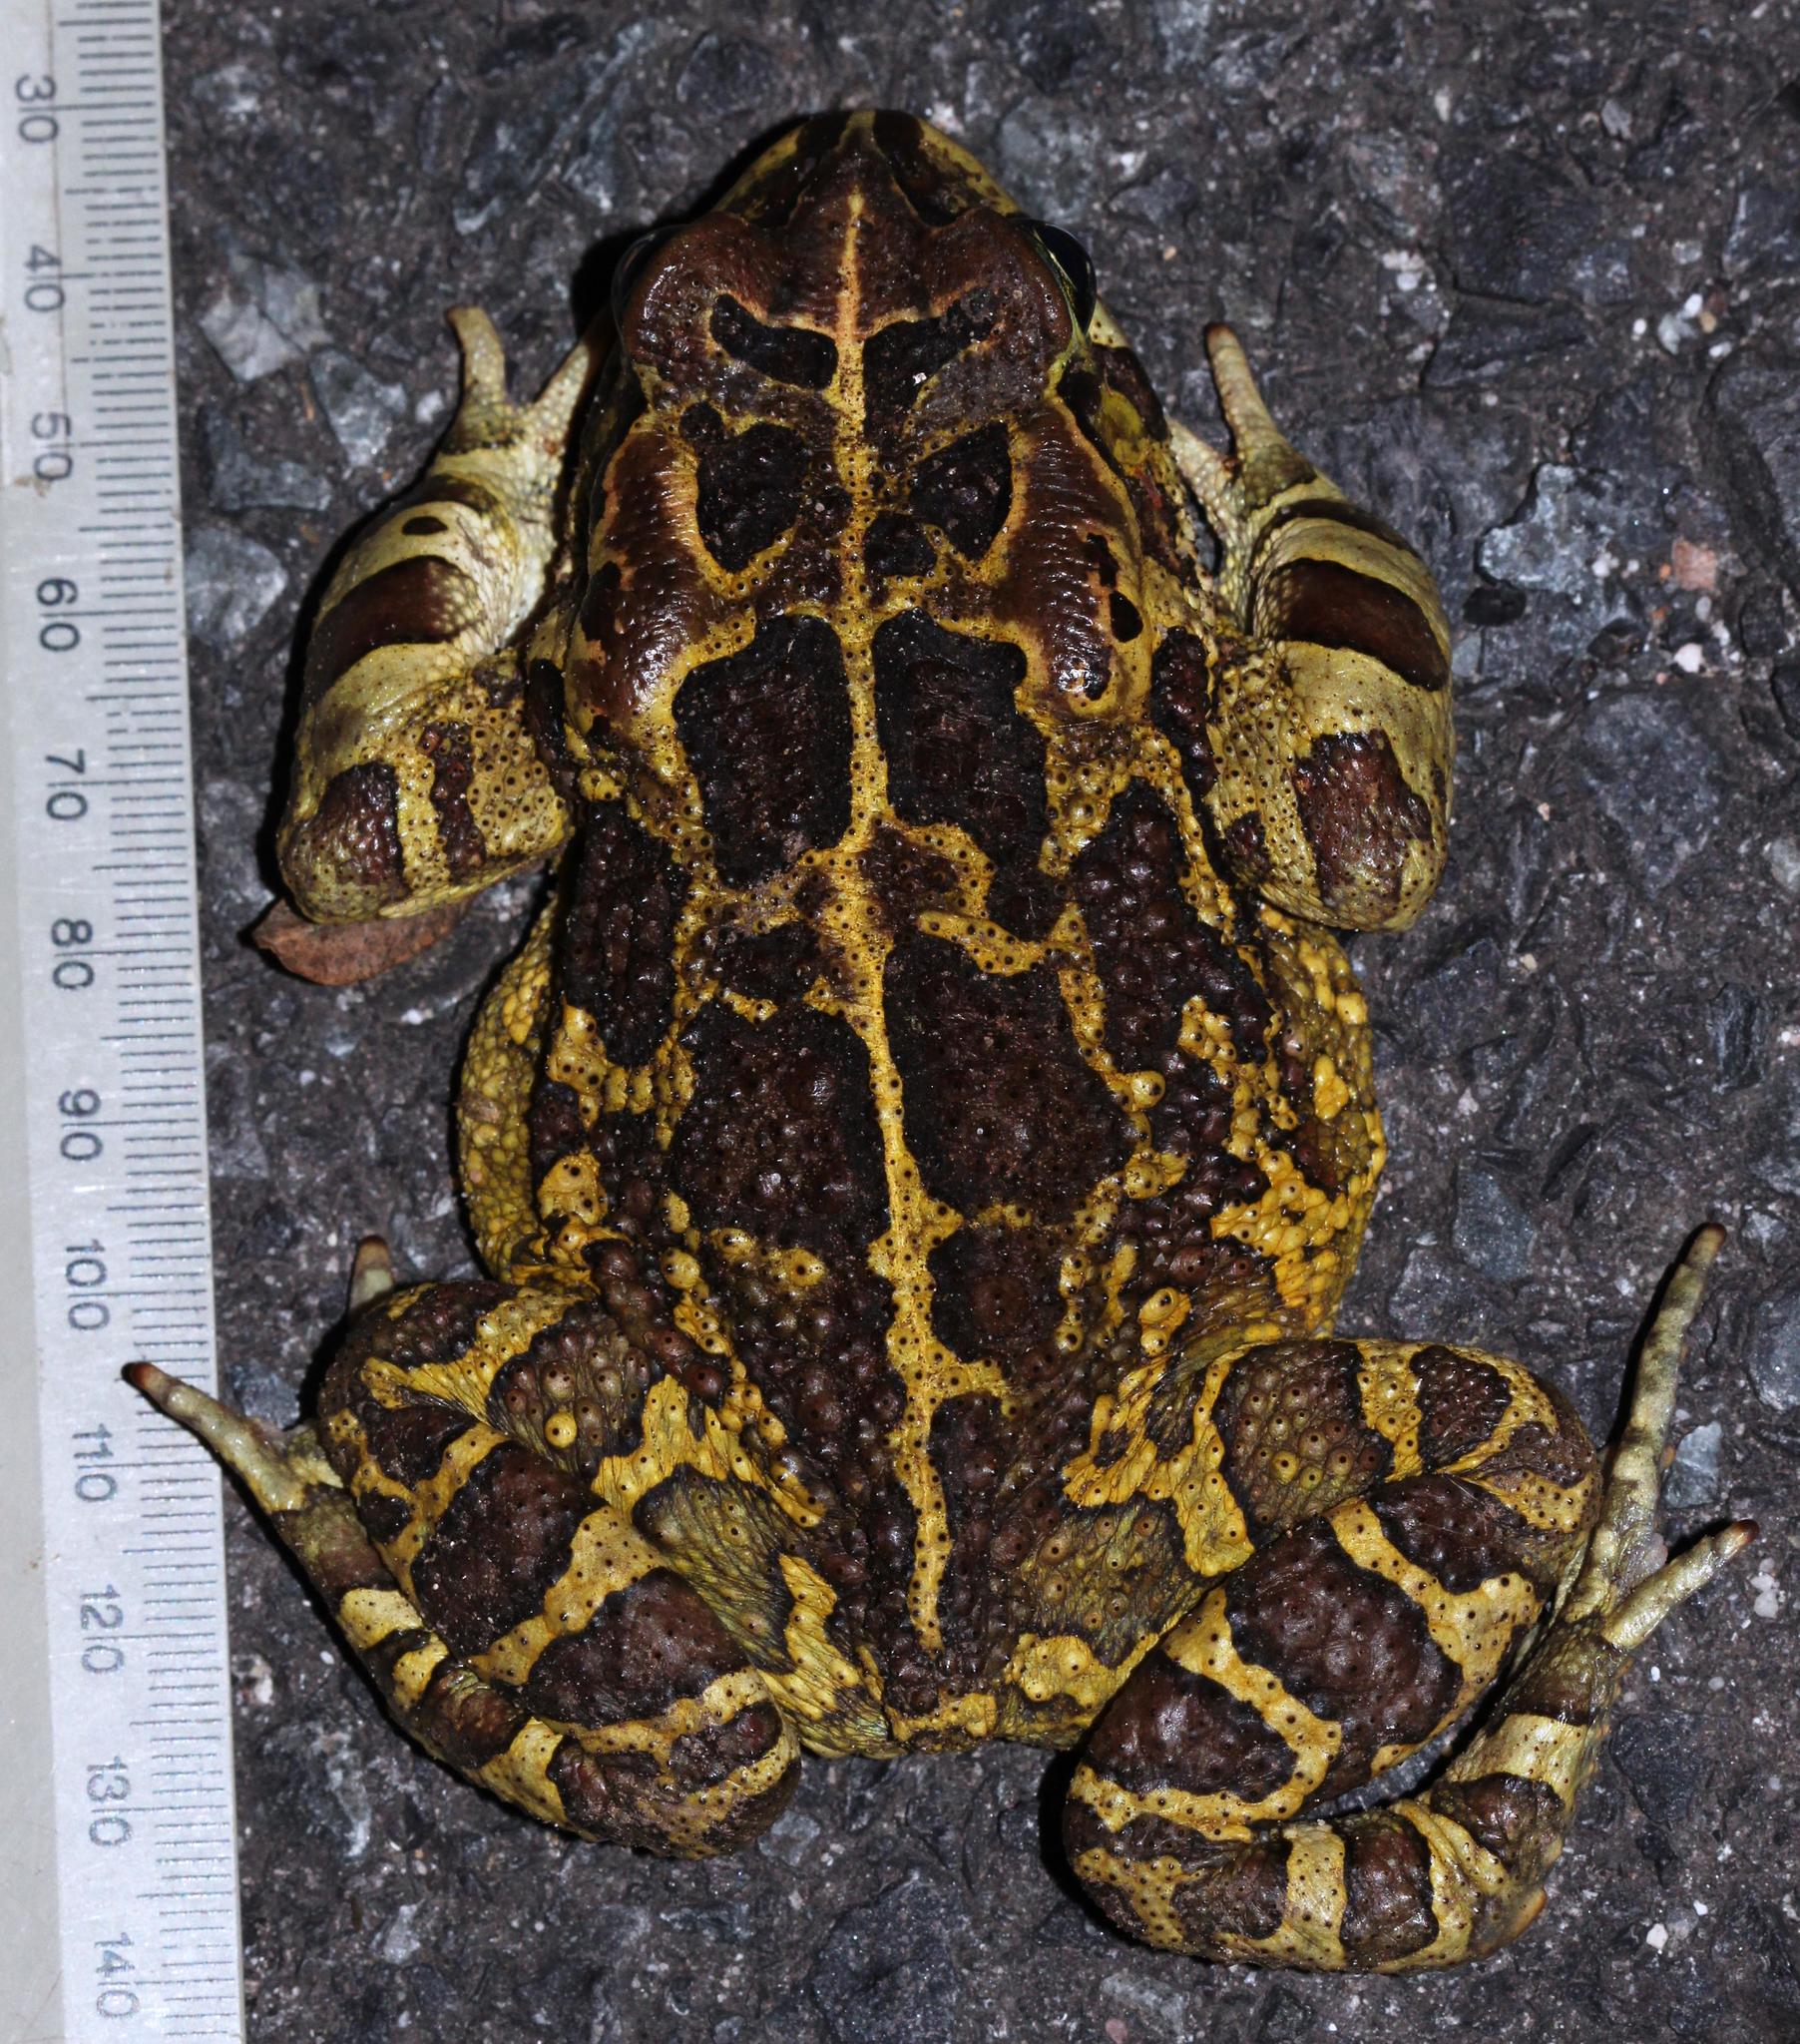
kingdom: Animalia
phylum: Chordata
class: Amphibia
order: Anura
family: Bufonidae
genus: Sclerophrys
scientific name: Sclerophrys pantherina
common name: Panther toad
